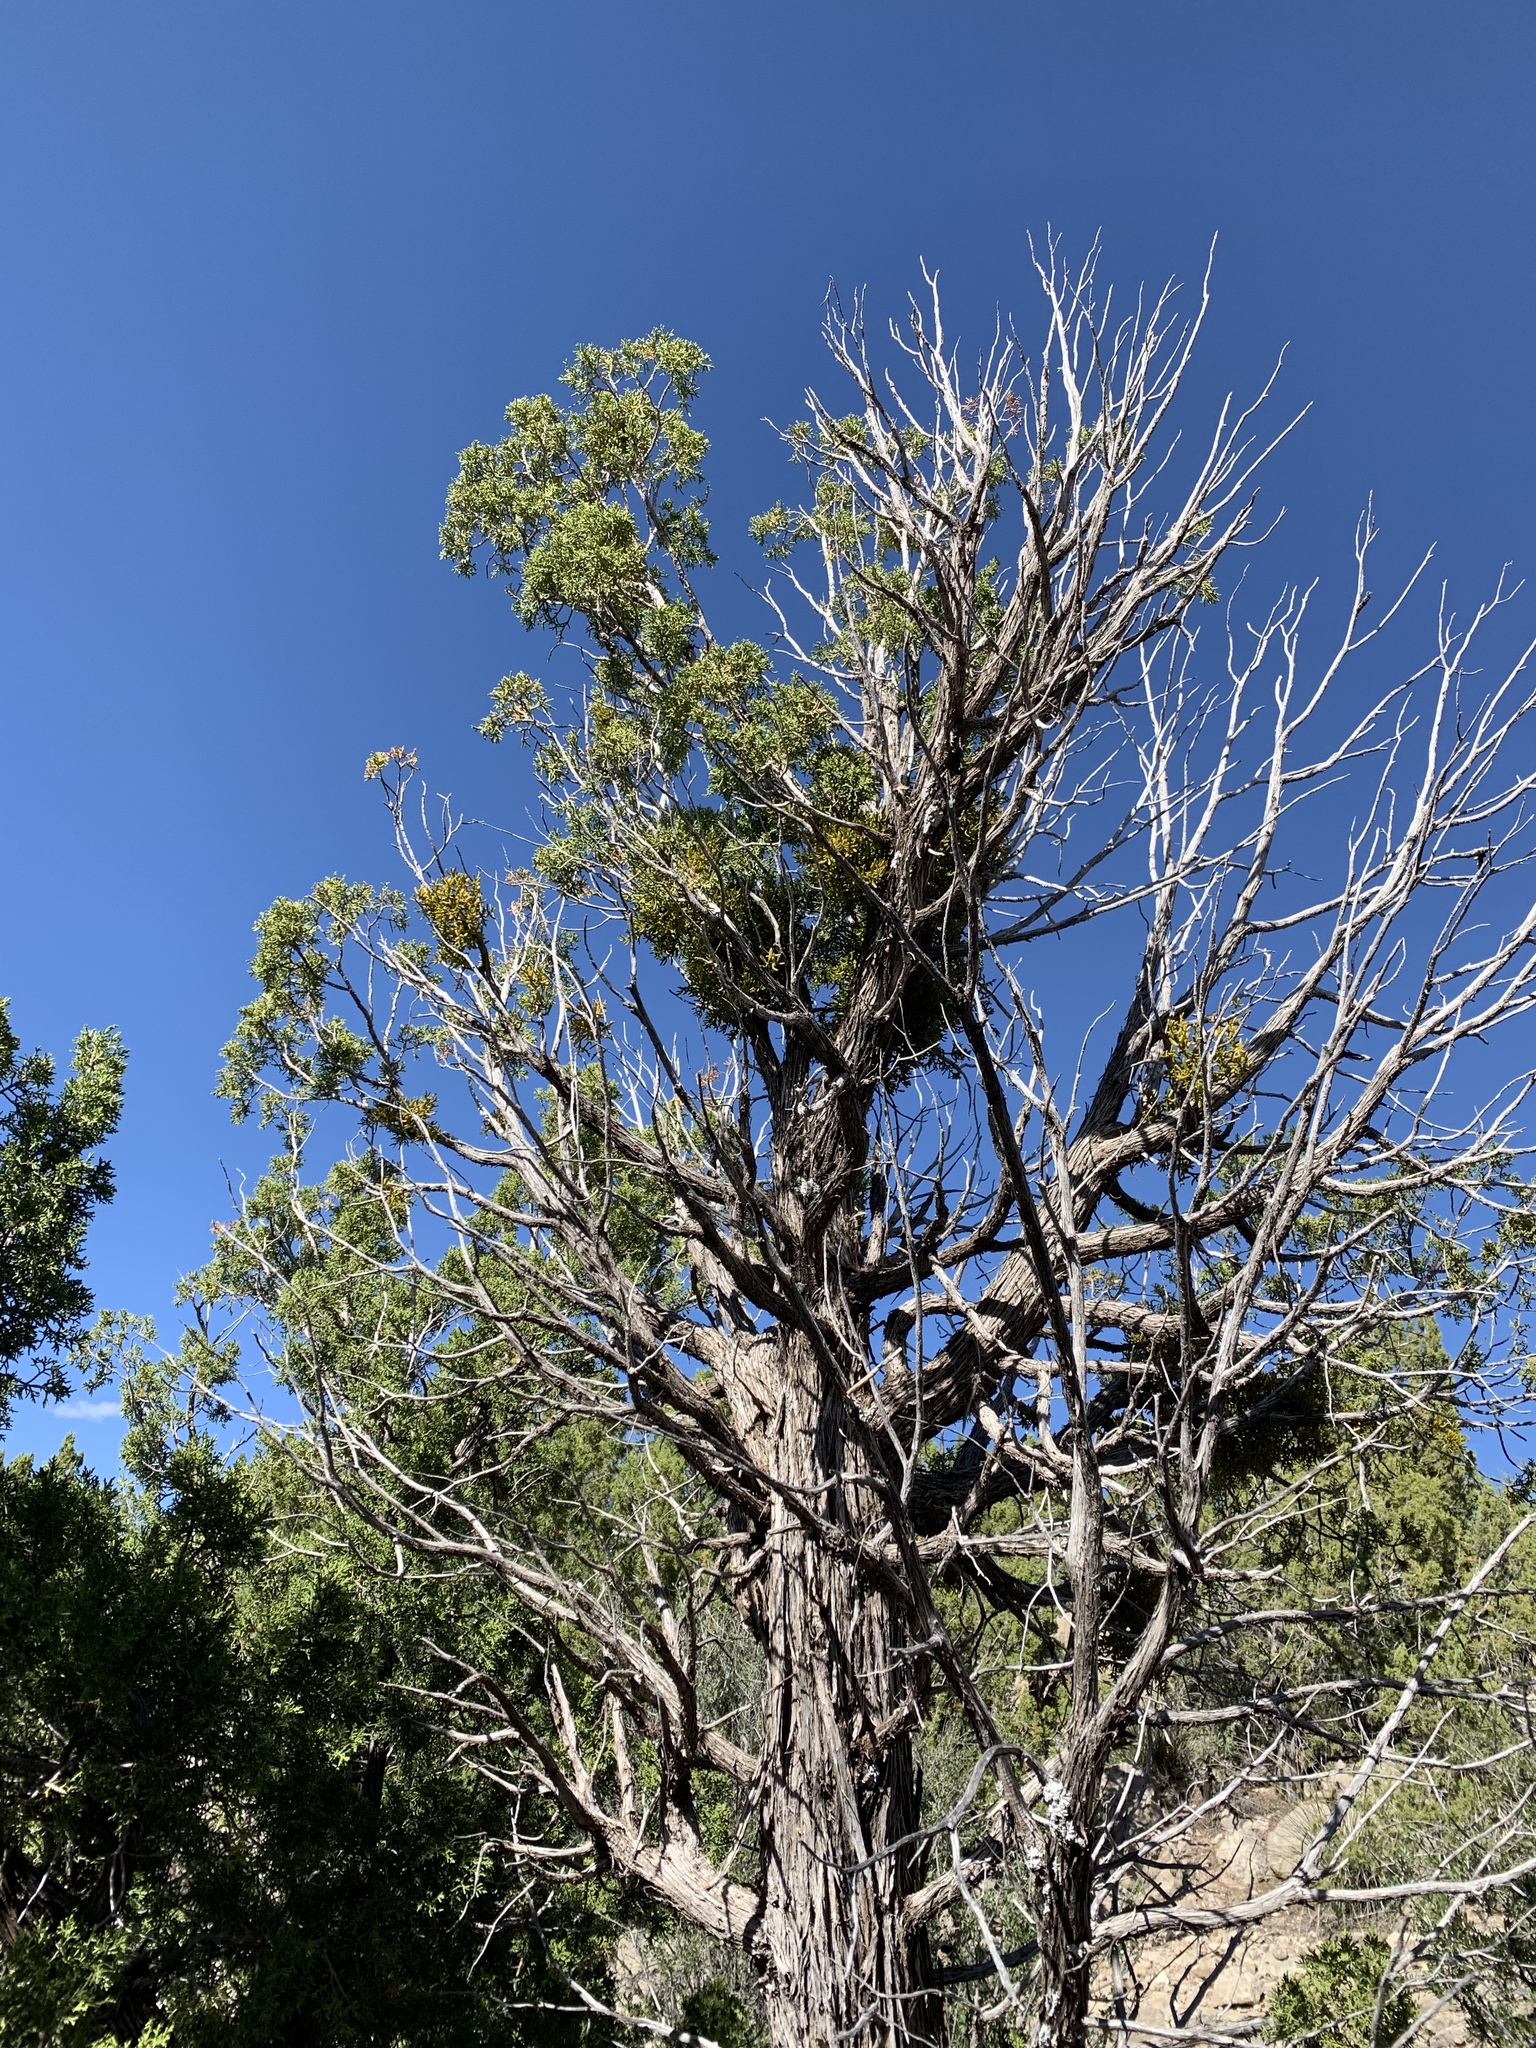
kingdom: Plantae
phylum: Tracheophyta
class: Pinopsida
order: Pinales
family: Cupressaceae
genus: Juniperus
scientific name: Juniperus monosperma
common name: One-seed juniper
